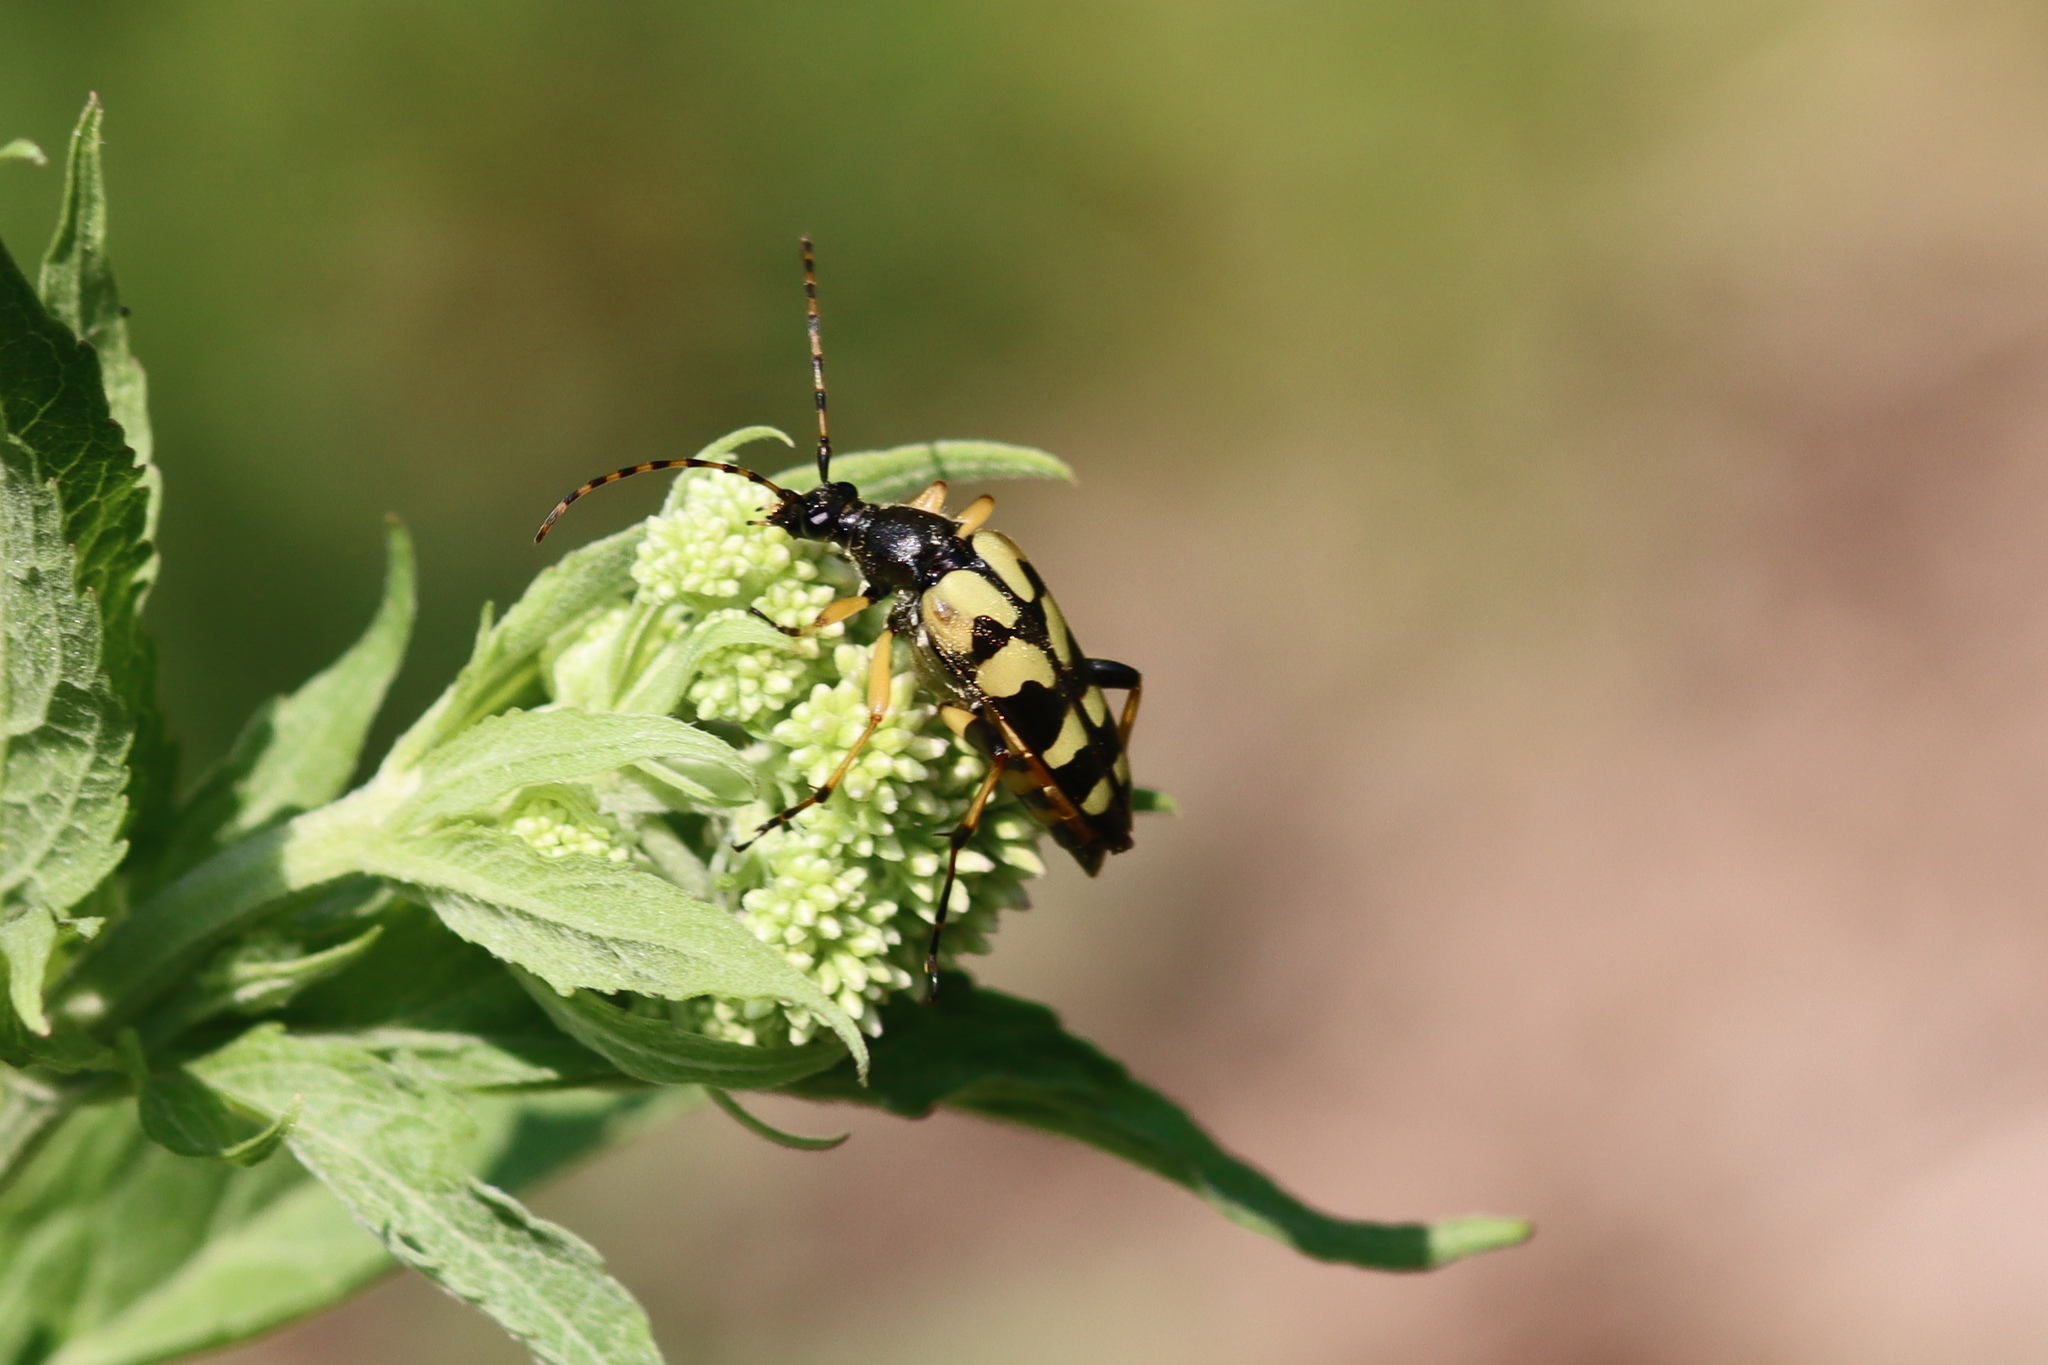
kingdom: Animalia
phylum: Arthropoda
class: Insecta
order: Coleoptera
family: Cerambycidae
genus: Rutpela
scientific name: Rutpela maculata
